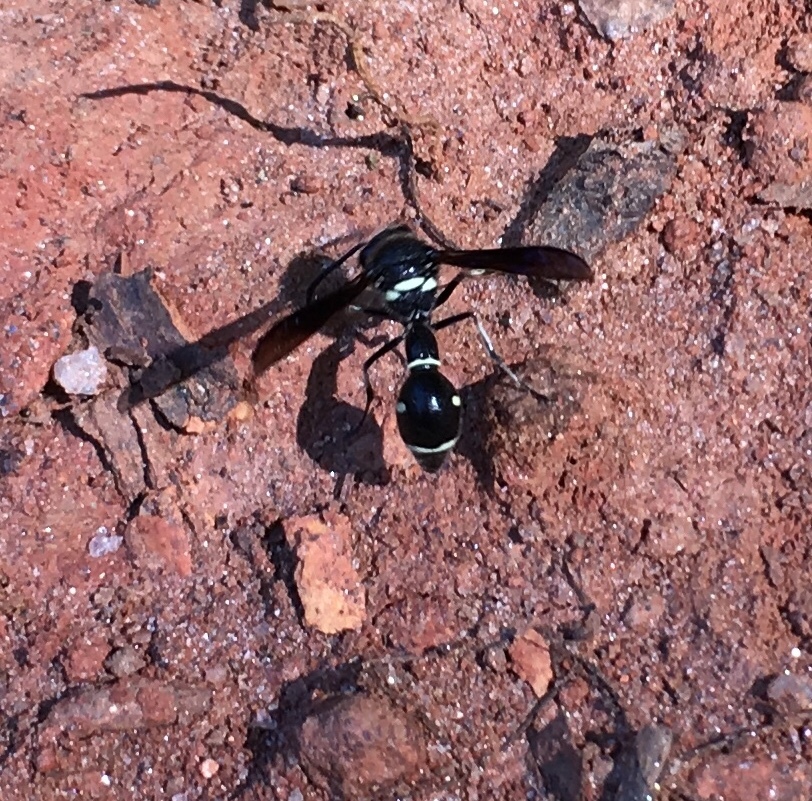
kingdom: Animalia
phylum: Arthropoda
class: Insecta
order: Hymenoptera
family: Vespidae
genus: Eumenes
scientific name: Eumenes fraternus
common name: Fraternal potter wasp
